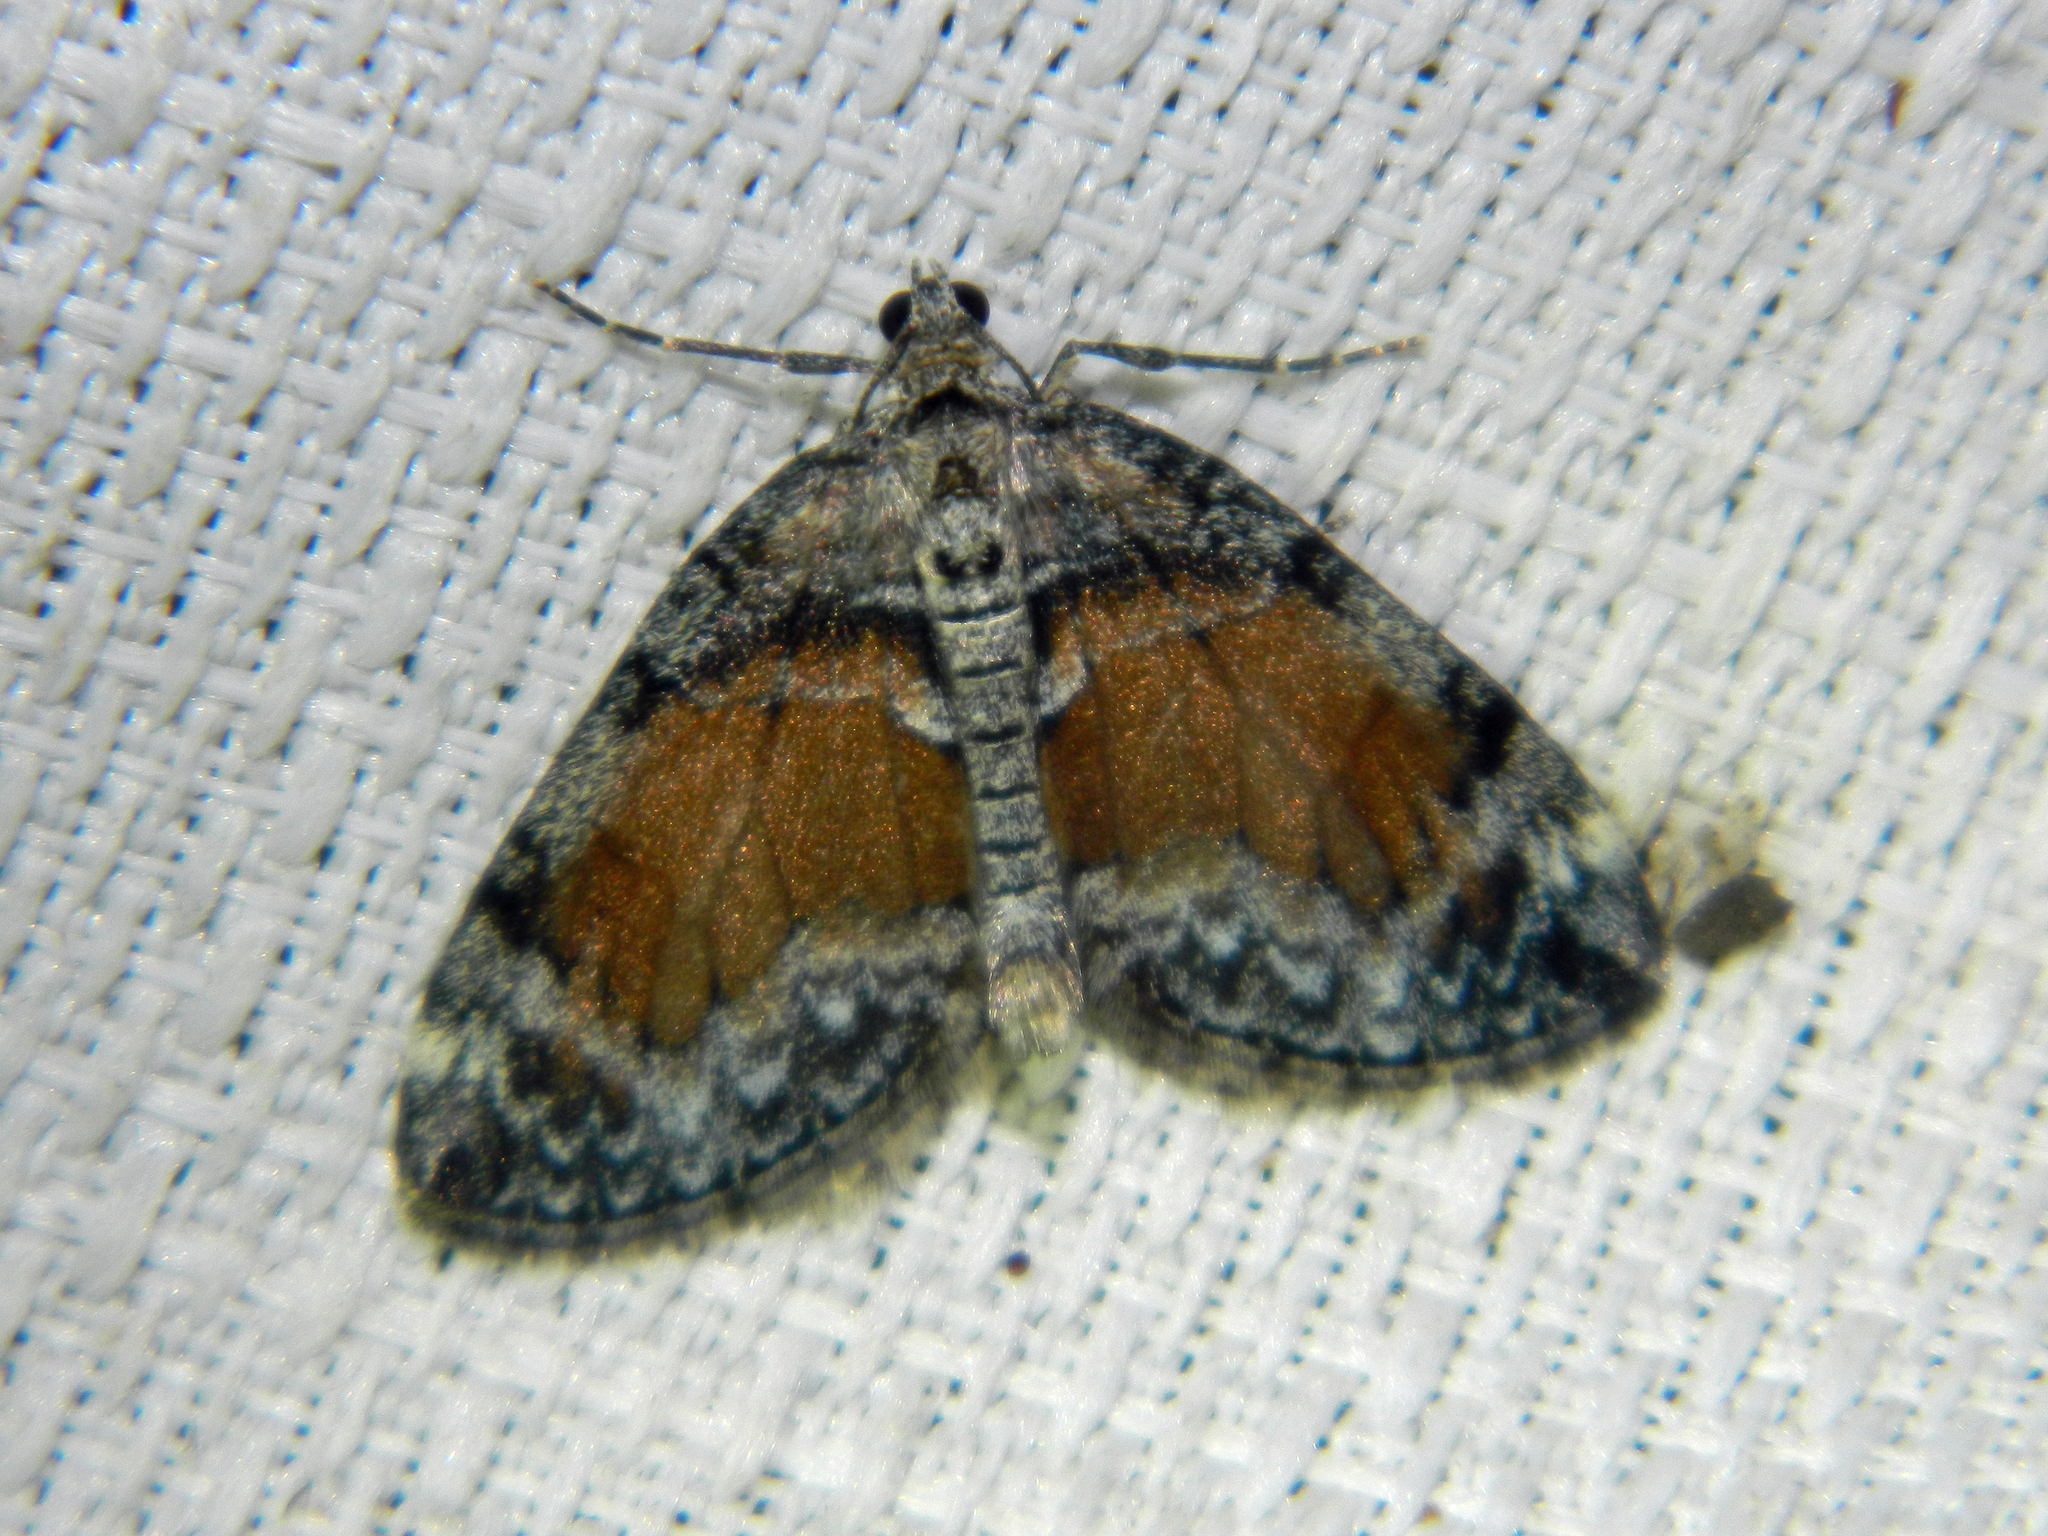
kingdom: Animalia
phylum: Arthropoda
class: Insecta
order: Lepidoptera
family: Geometridae
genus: Dysstroma
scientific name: Dysstroma hersiliata
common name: Orange-barred carpet
